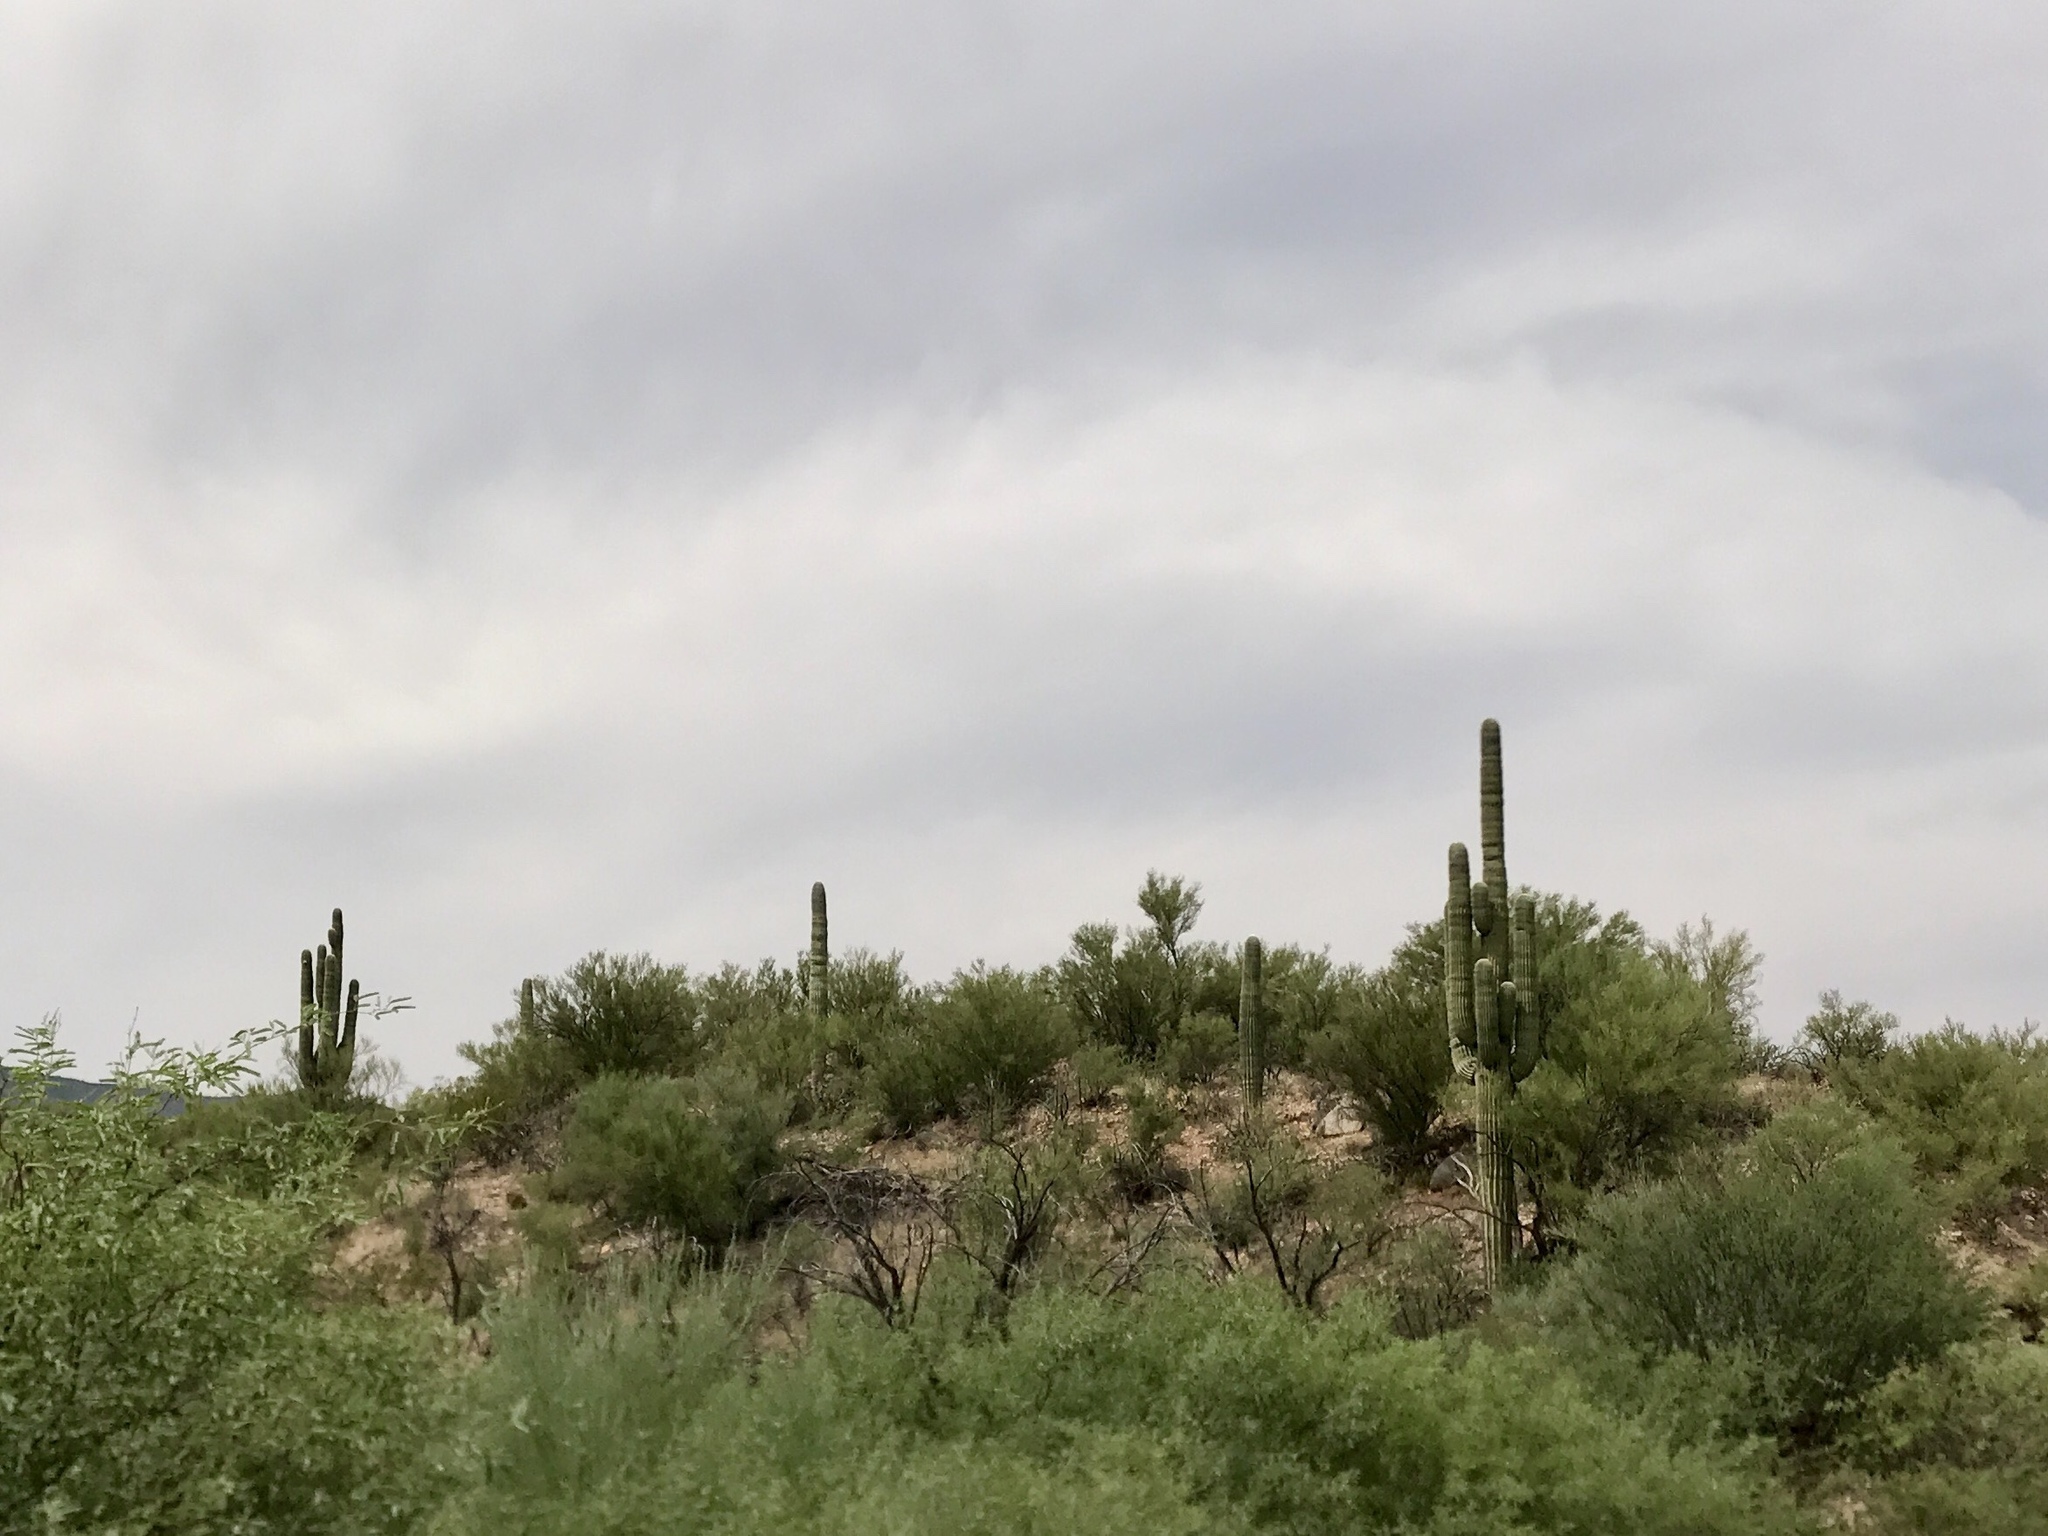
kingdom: Plantae
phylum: Tracheophyta
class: Magnoliopsida
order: Caryophyllales
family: Cactaceae
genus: Carnegiea
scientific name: Carnegiea gigantea
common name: Saguaro
